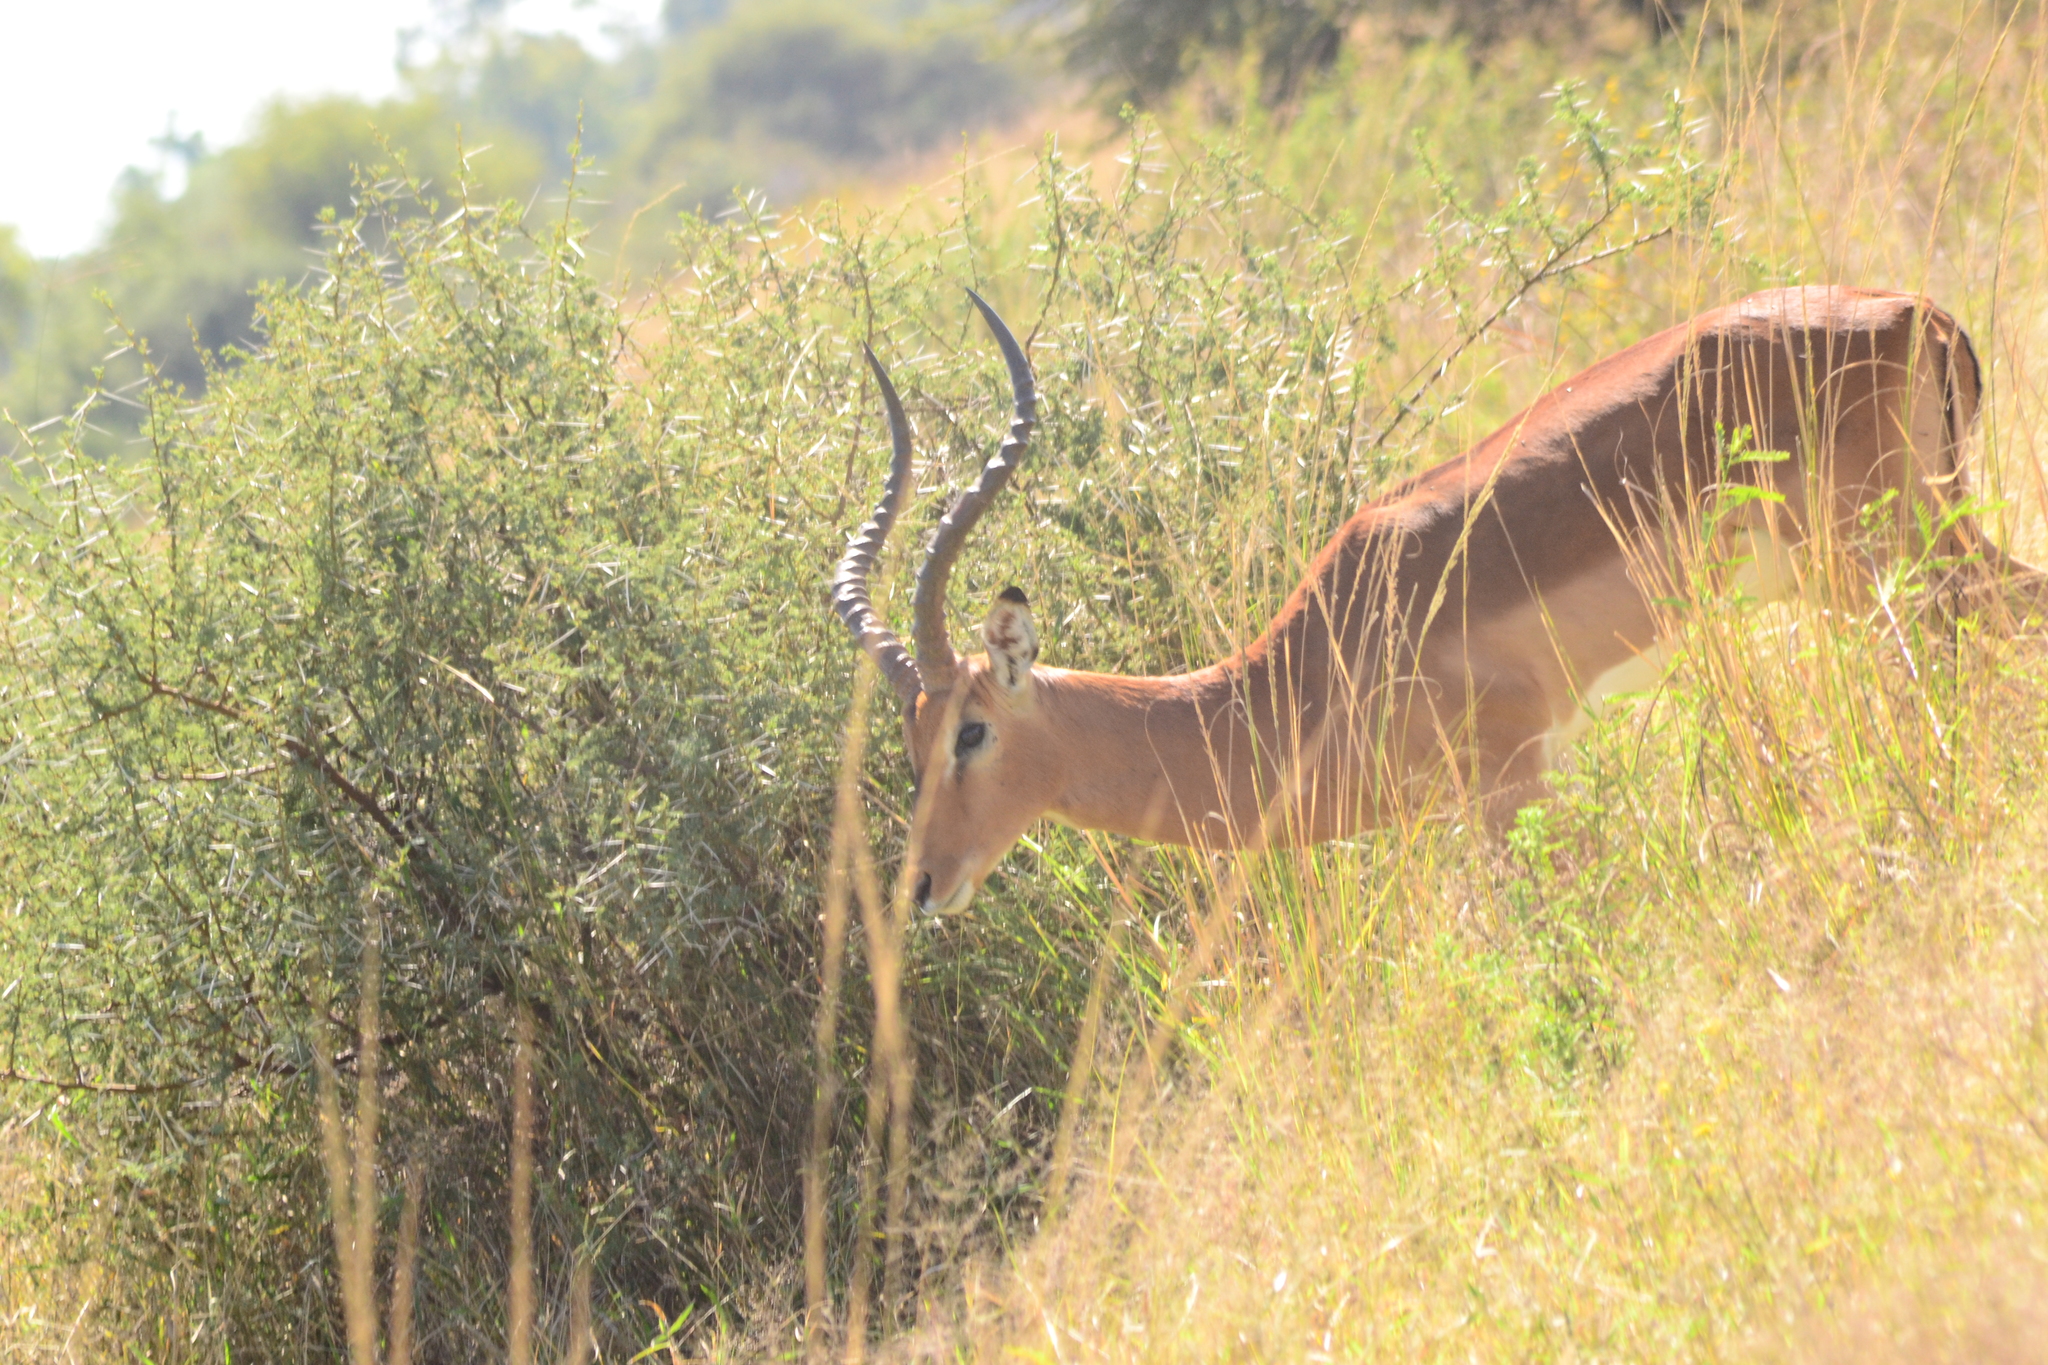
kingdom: Animalia
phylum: Chordata
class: Mammalia
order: Artiodactyla
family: Bovidae
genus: Aepyceros
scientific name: Aepyceros melampus
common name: Impala
